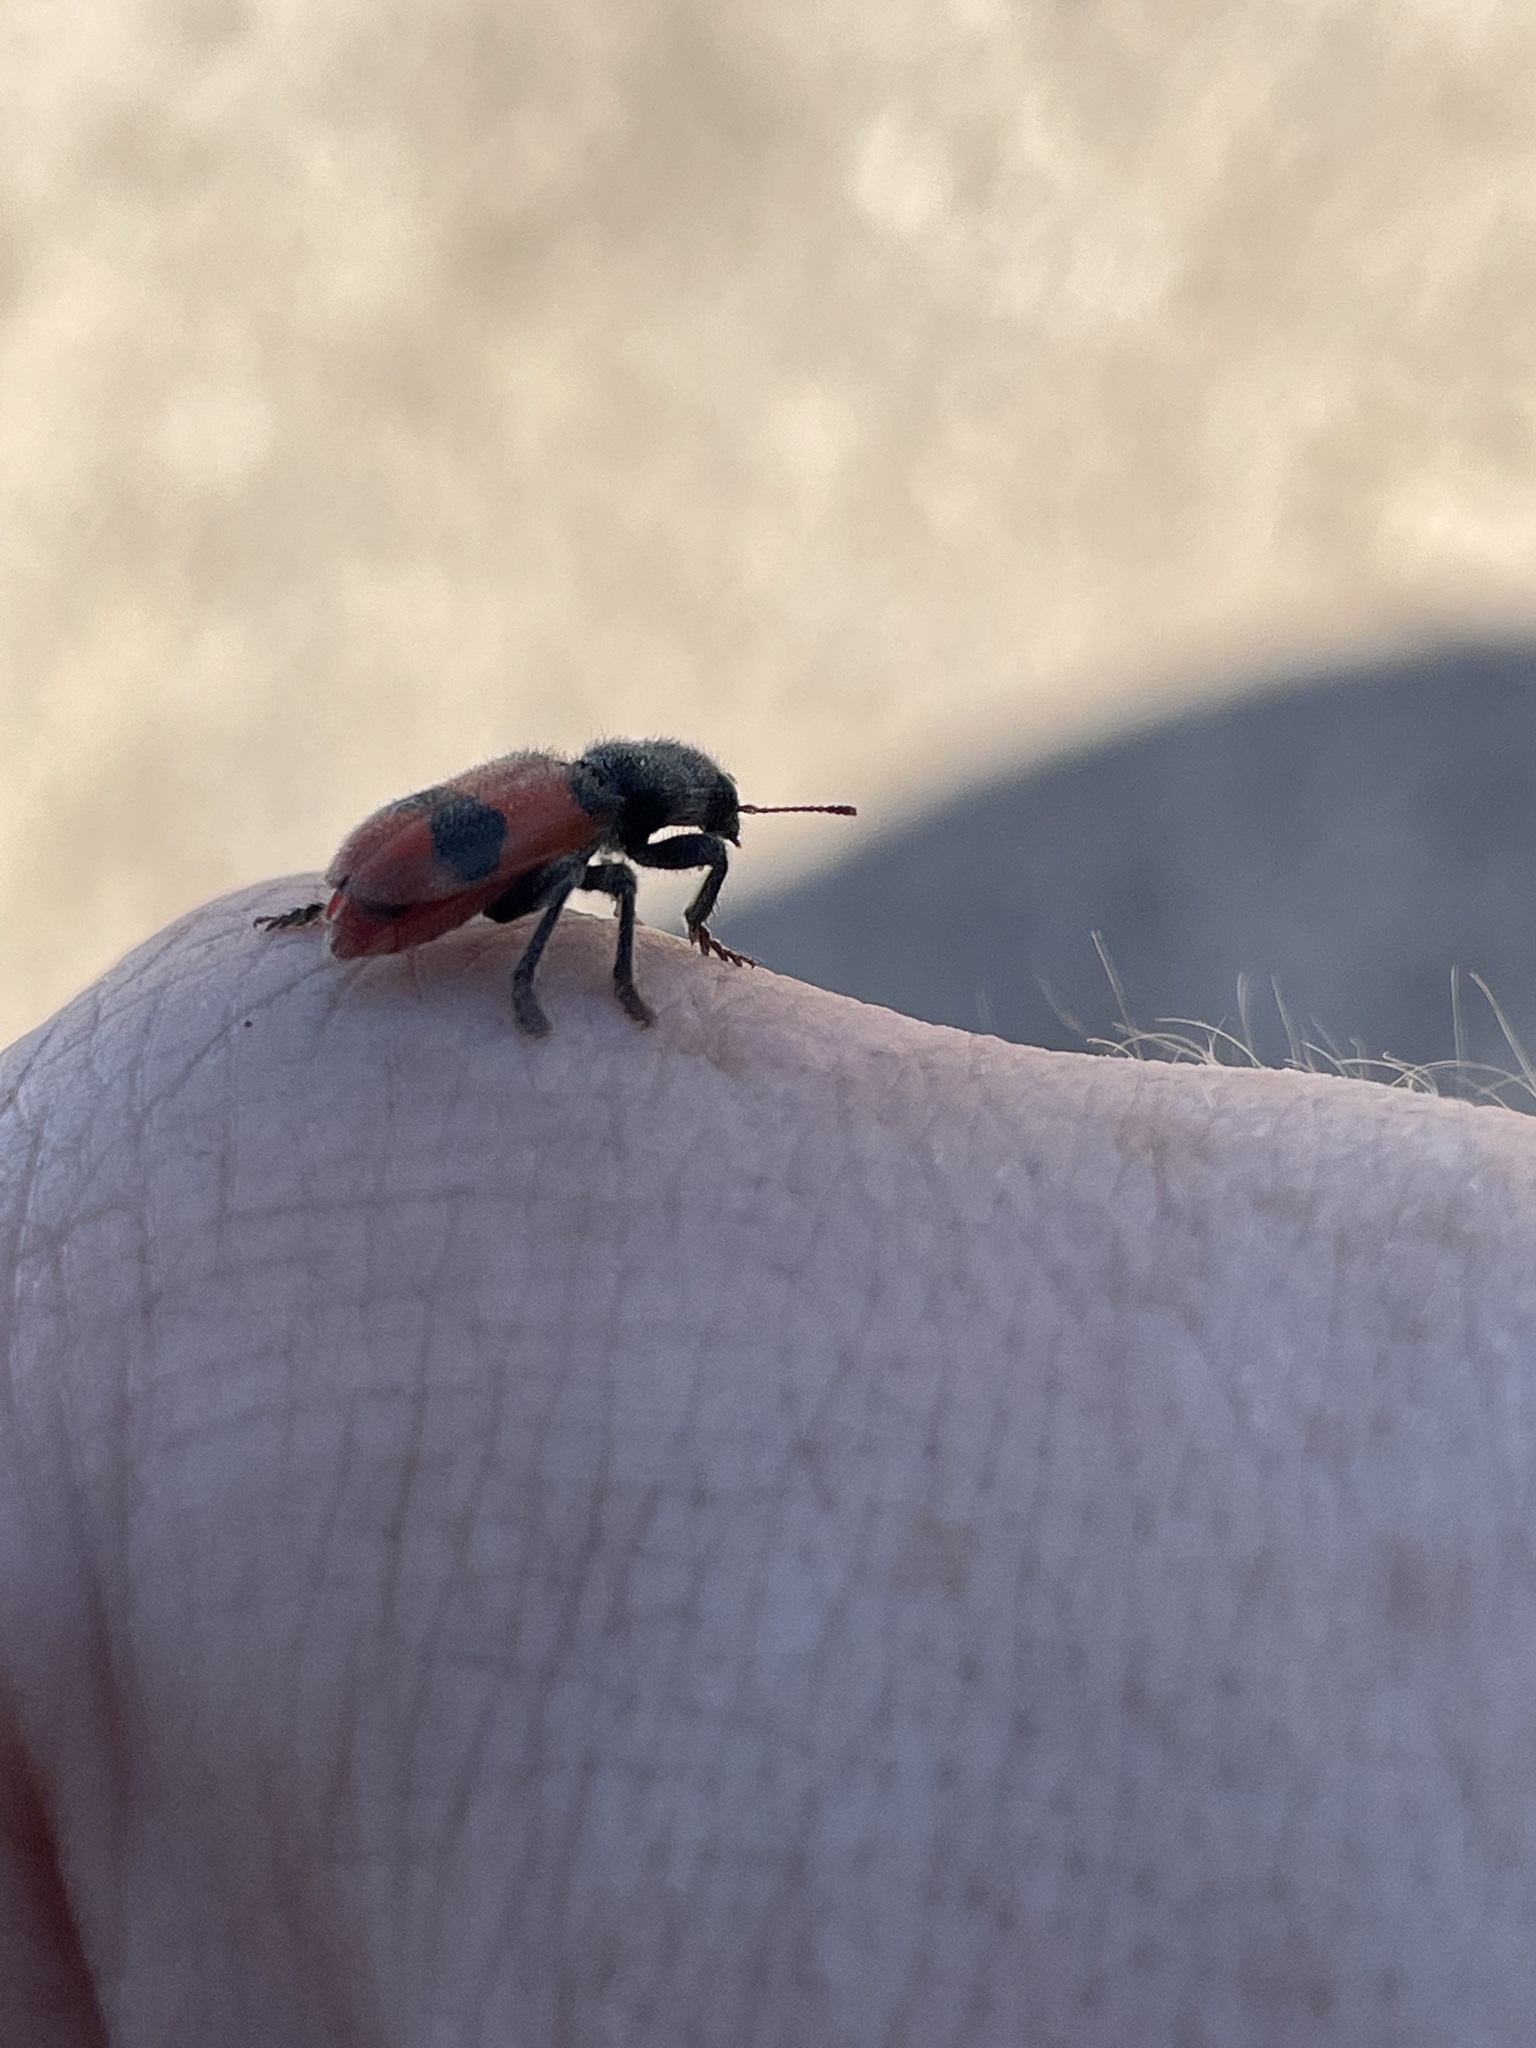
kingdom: Animalia
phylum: Arthropoda
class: Insecta
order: Coleoptera
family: Cleridae
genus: Enoclerus
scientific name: Enoclerus
